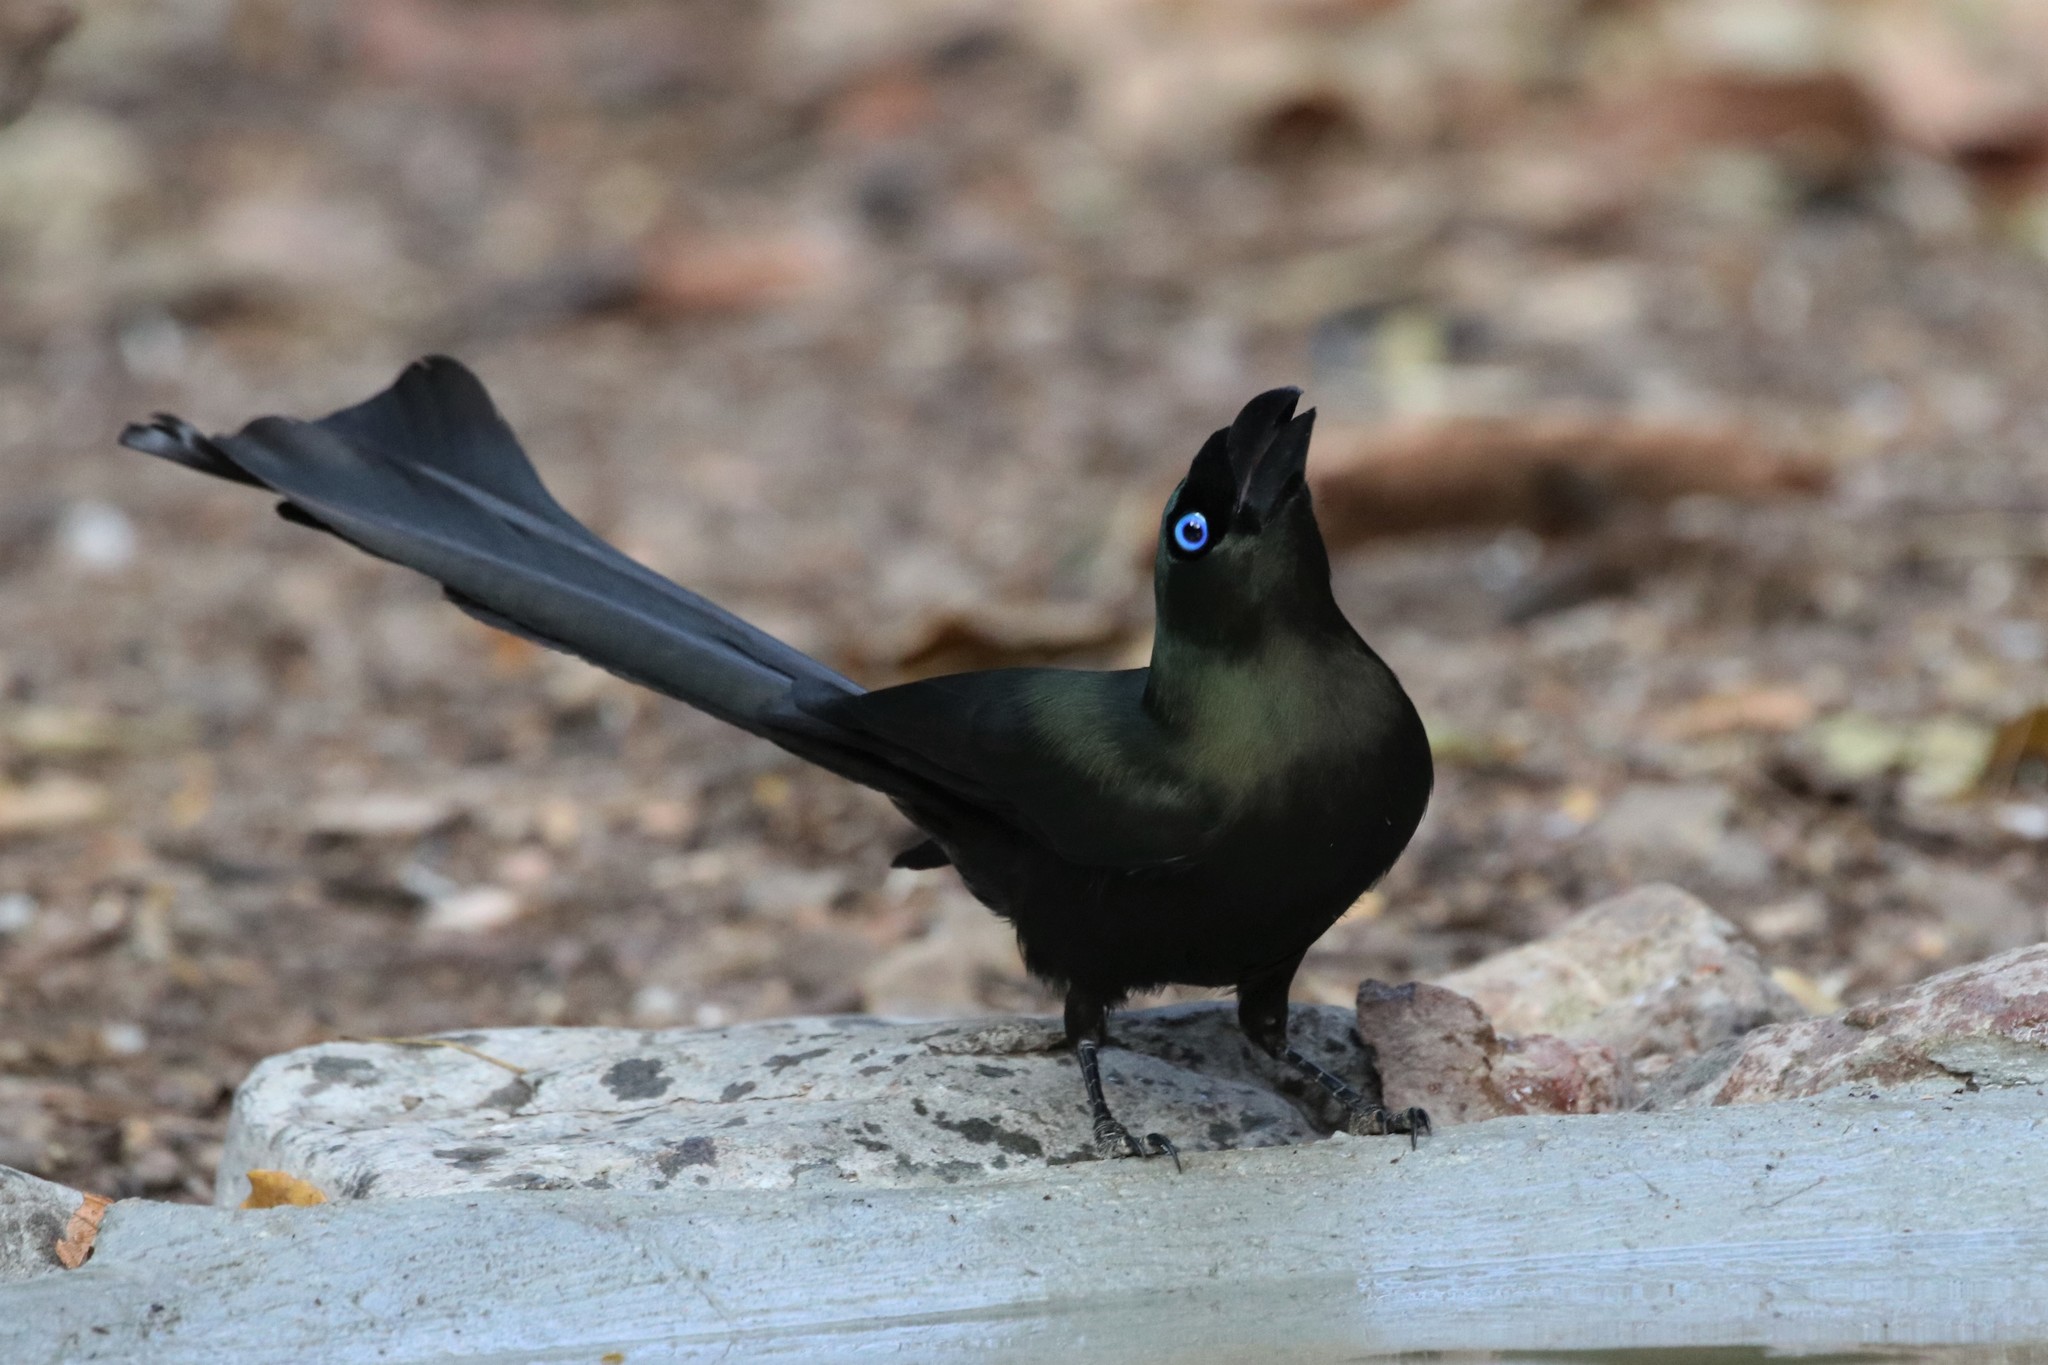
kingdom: Animalia
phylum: Chordata
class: Aves
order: Passeriformes
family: Corvidae
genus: Crypsirina
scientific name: Crypsirina temia
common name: Racket-tailed treepie
